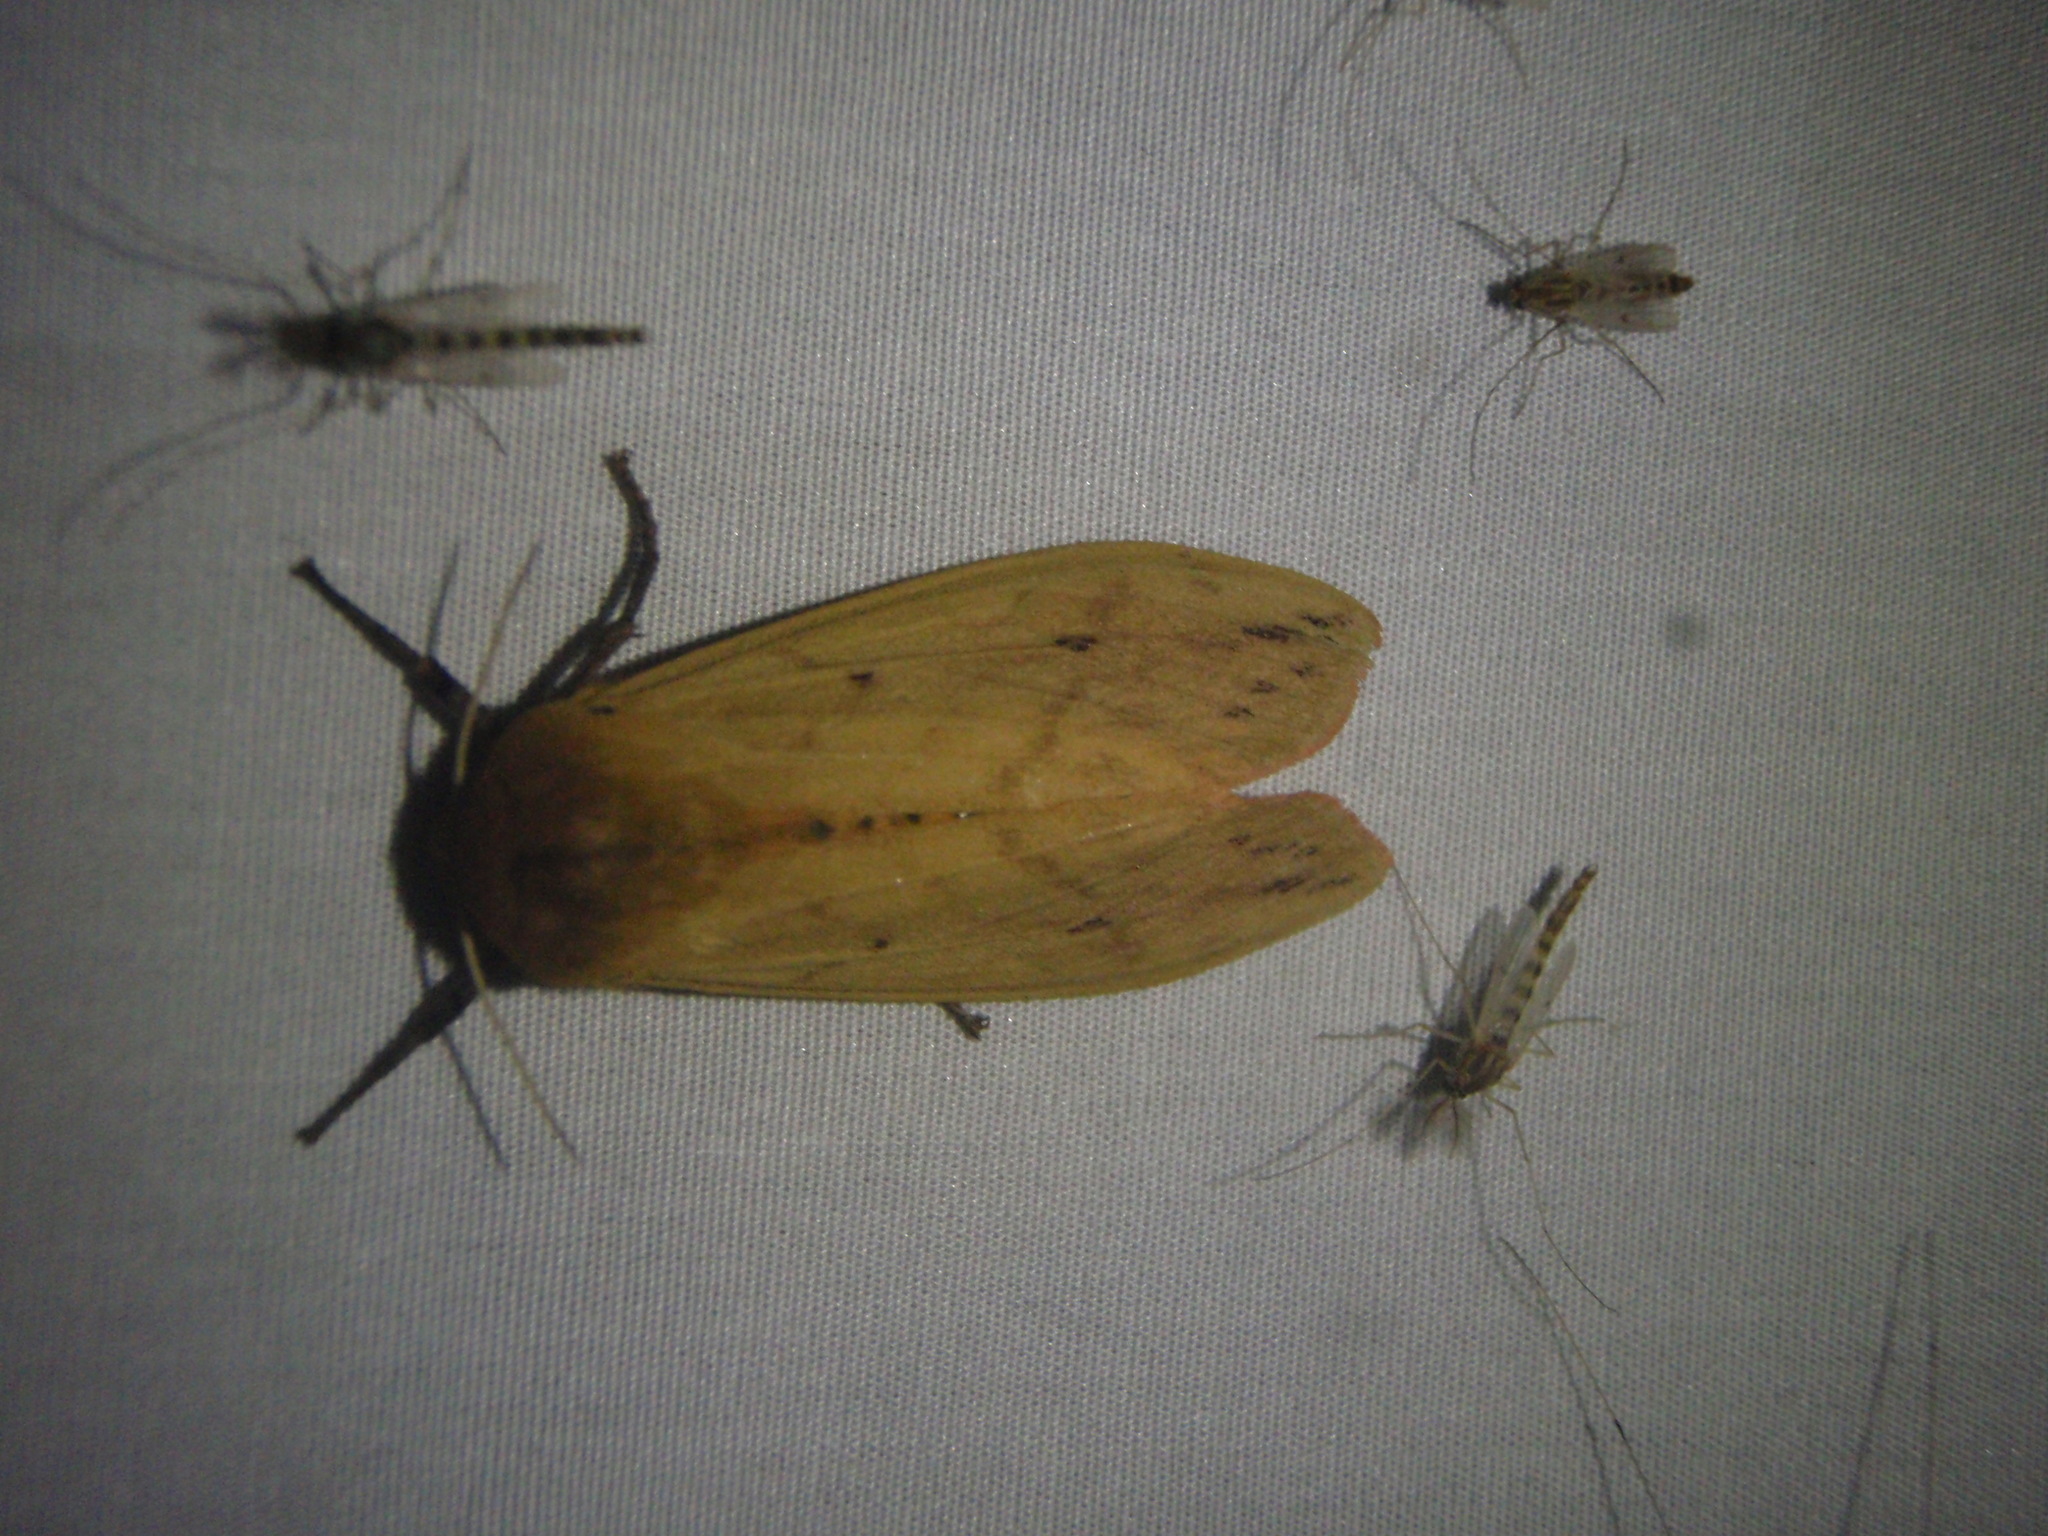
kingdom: Animalia
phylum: Arthropoda
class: Insecta
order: Lepidoptera
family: Erebidae
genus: Pyrrharctia
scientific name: Pyrrharctia isabella
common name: Isabella tiger moth
